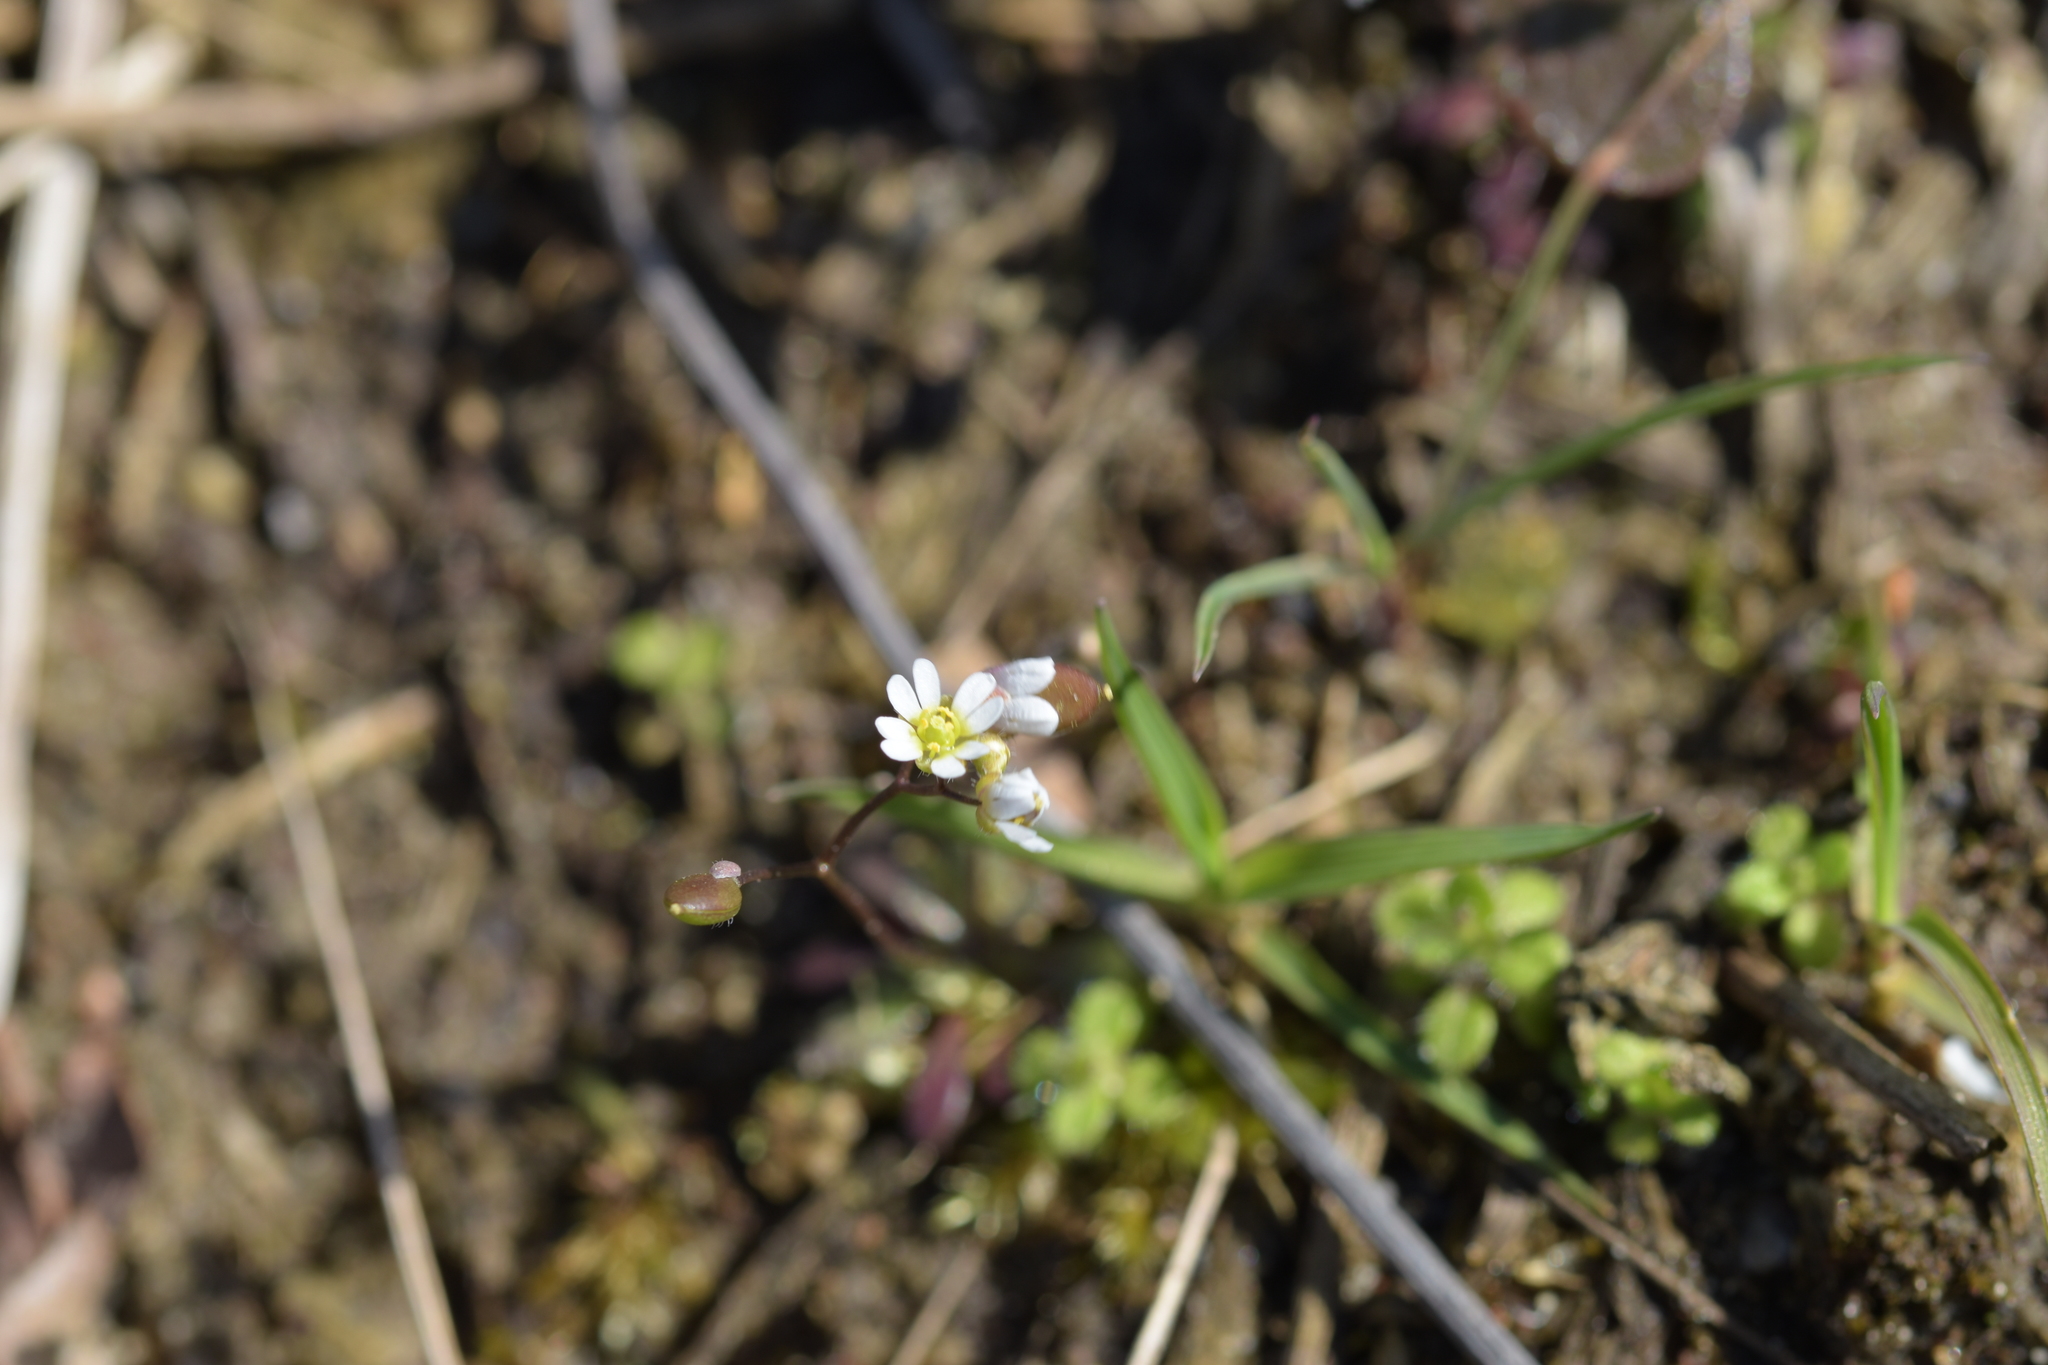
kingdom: Plantae
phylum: Tracheophyta
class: Magnoliopsida
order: Brassicales
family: Brassicaceae
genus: Draba
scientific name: Draba verna
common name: Spring draba
